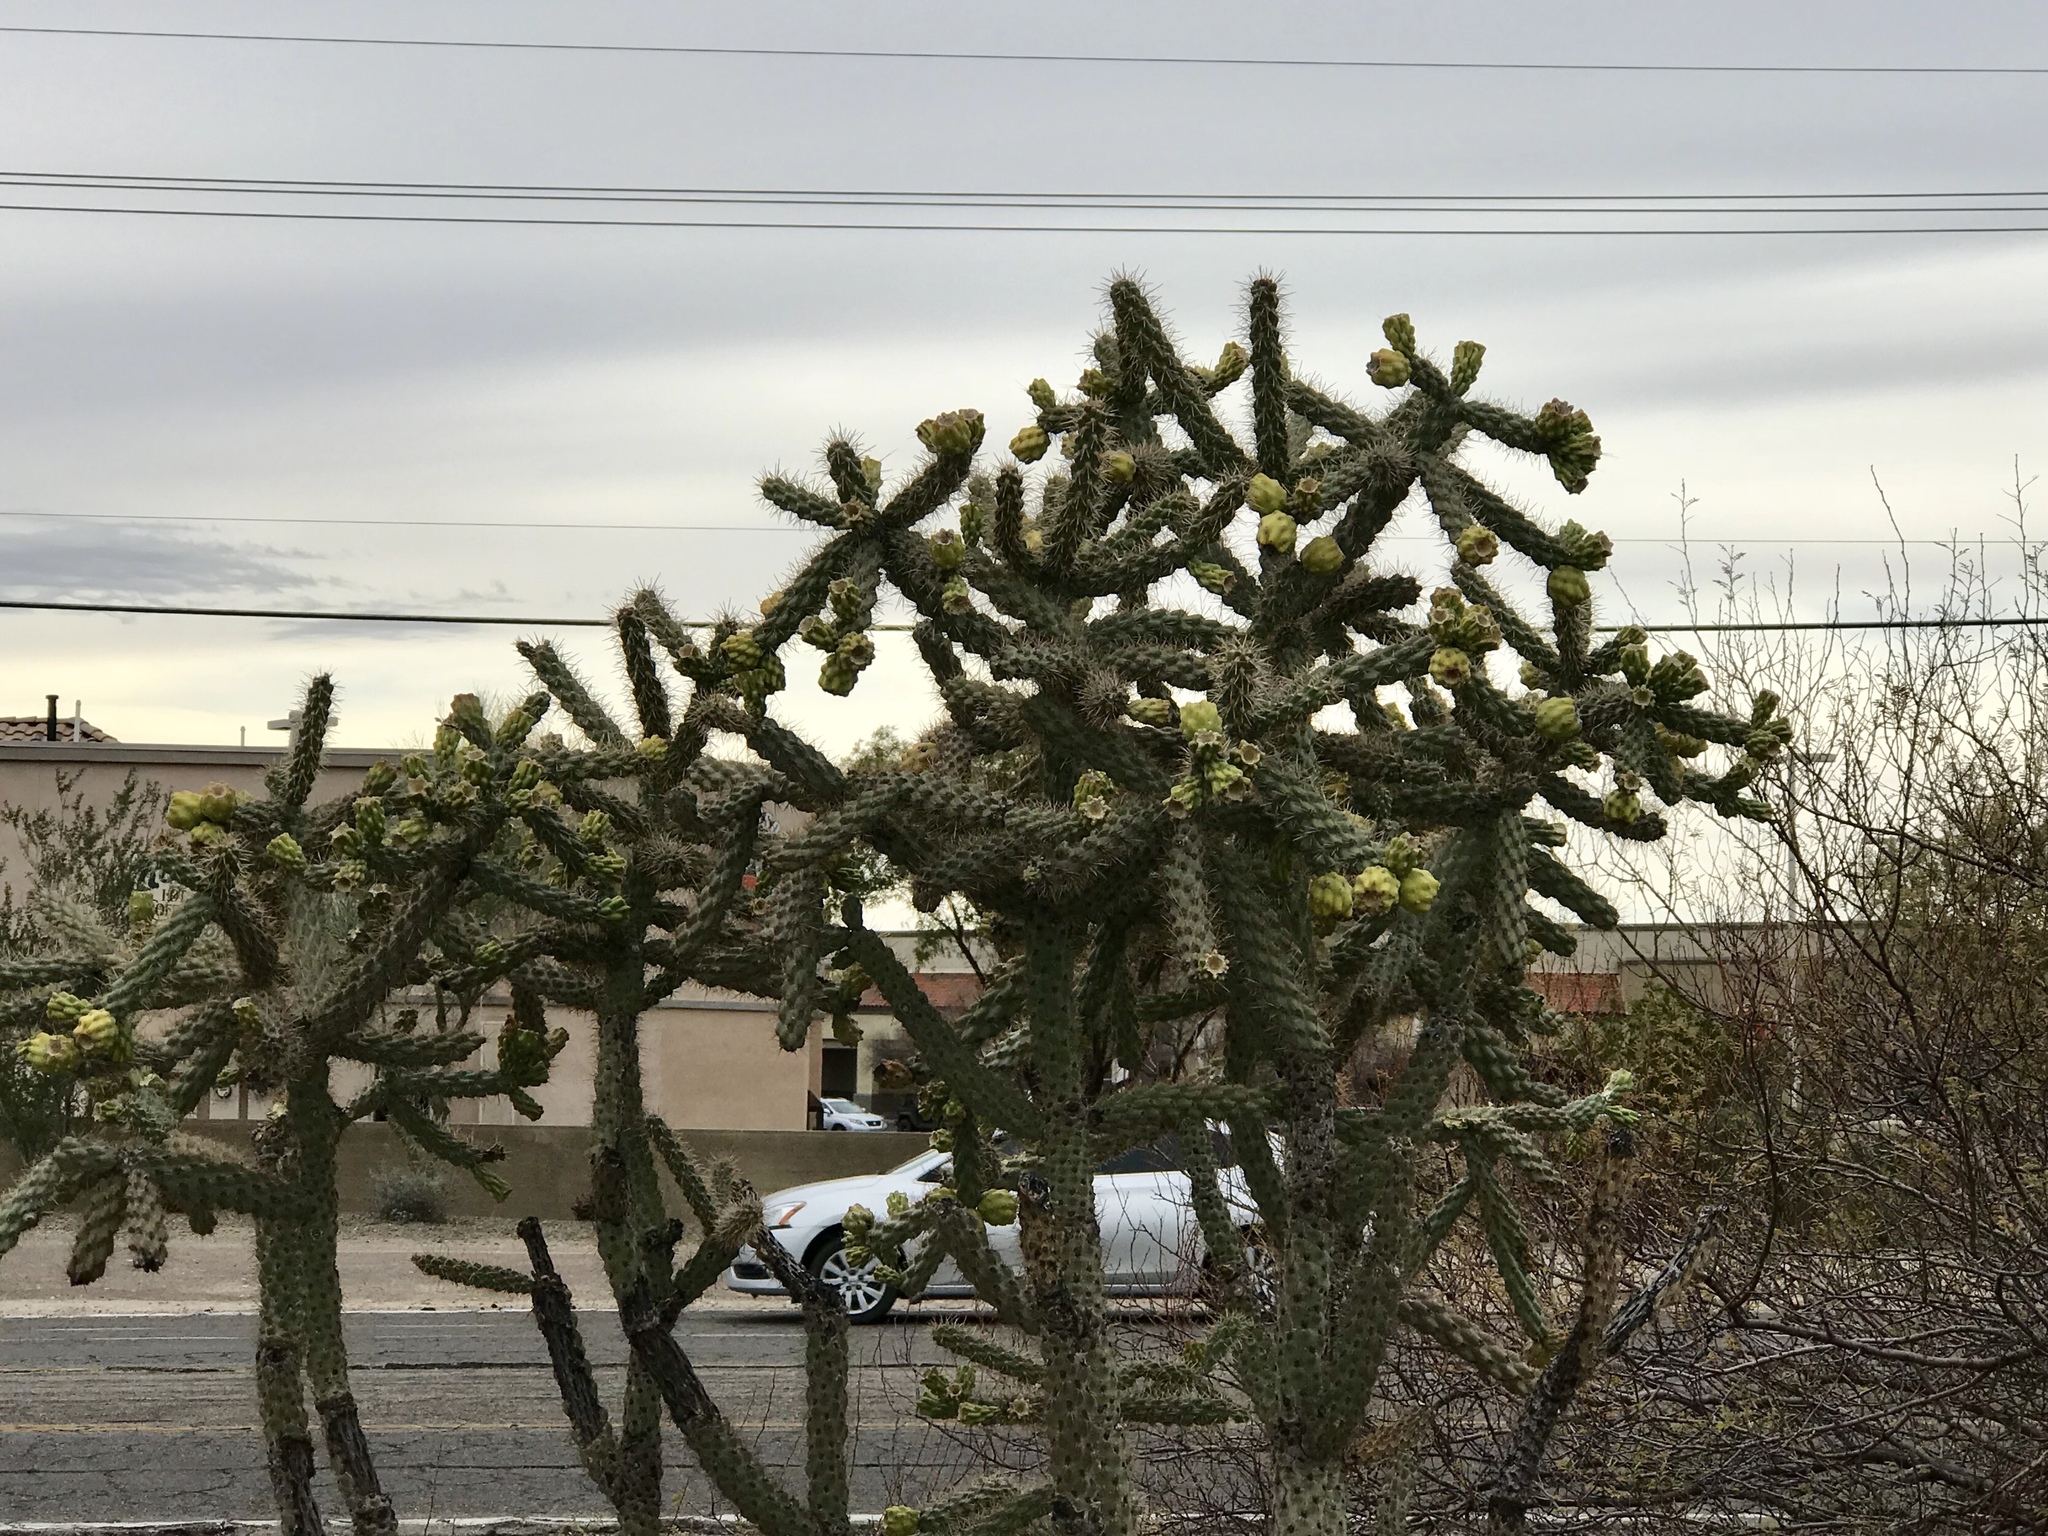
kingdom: Plantae
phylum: Tracheophyta
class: Magnoliopsida
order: Caryophyllales
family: Cactaceae
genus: Cylindropuntia
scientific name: Cylindropuntia imbricata
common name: Candelabrum cactus
